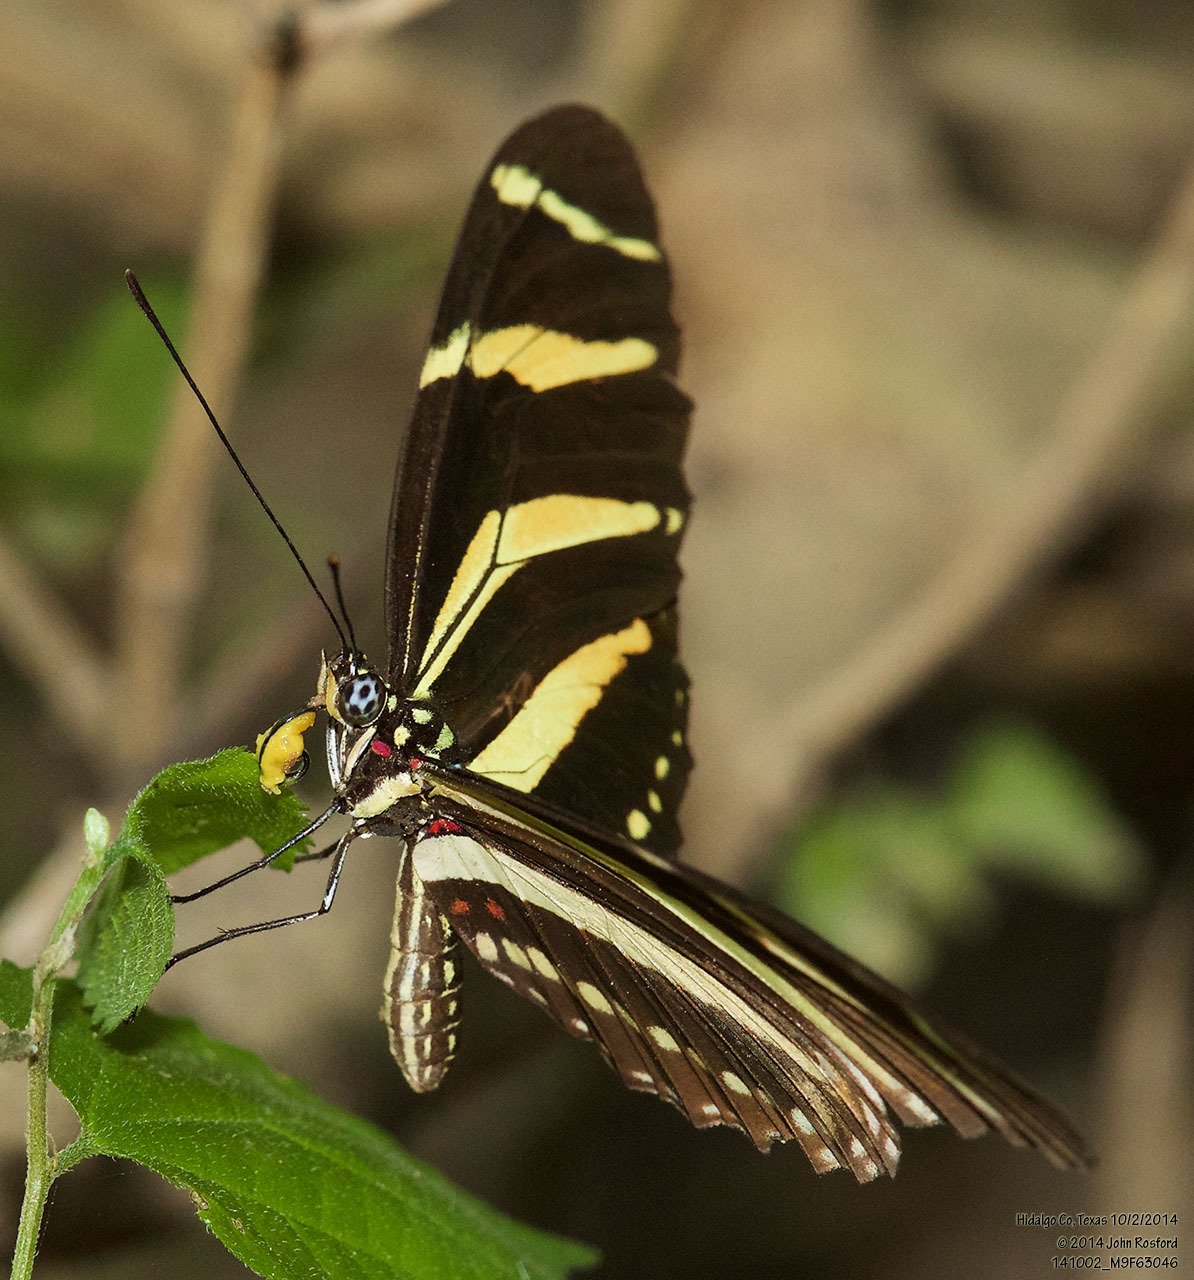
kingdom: Animalia
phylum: Arthropoda
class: Insecta
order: Lepidoptera
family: Nymphalidae
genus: Heliconius
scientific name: Heliconius charithonia
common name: Zebra long wing
